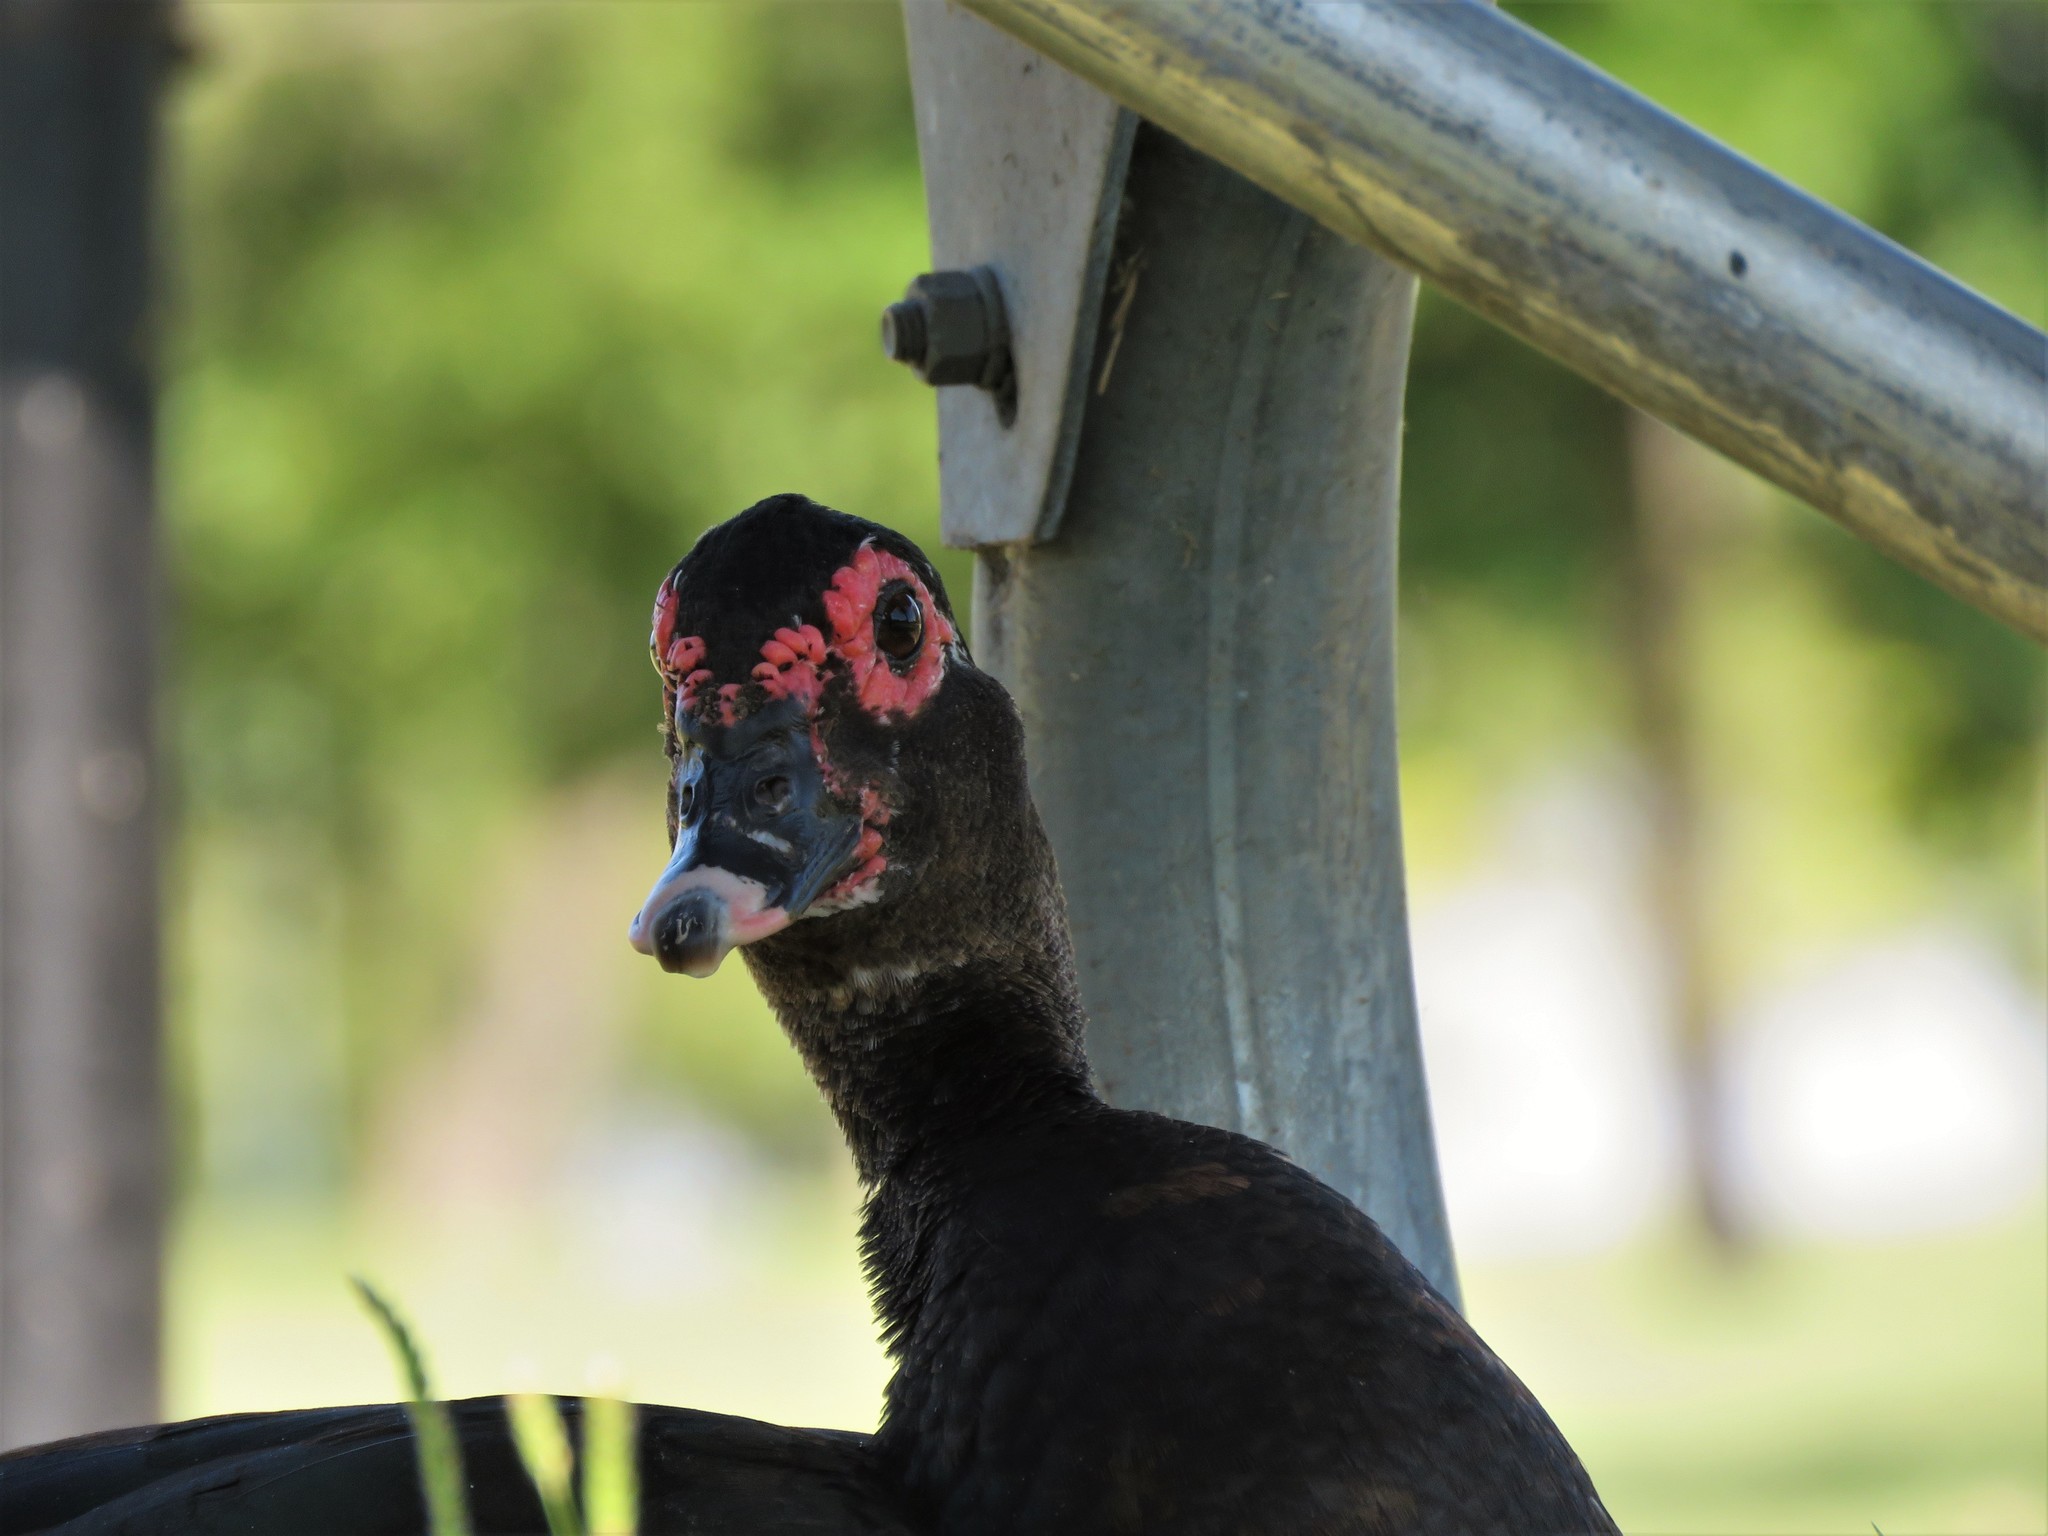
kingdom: Animalia
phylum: Chordata
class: Aves
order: Anseriformes
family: Anatidae
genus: Cairina
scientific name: Cairina moschata
